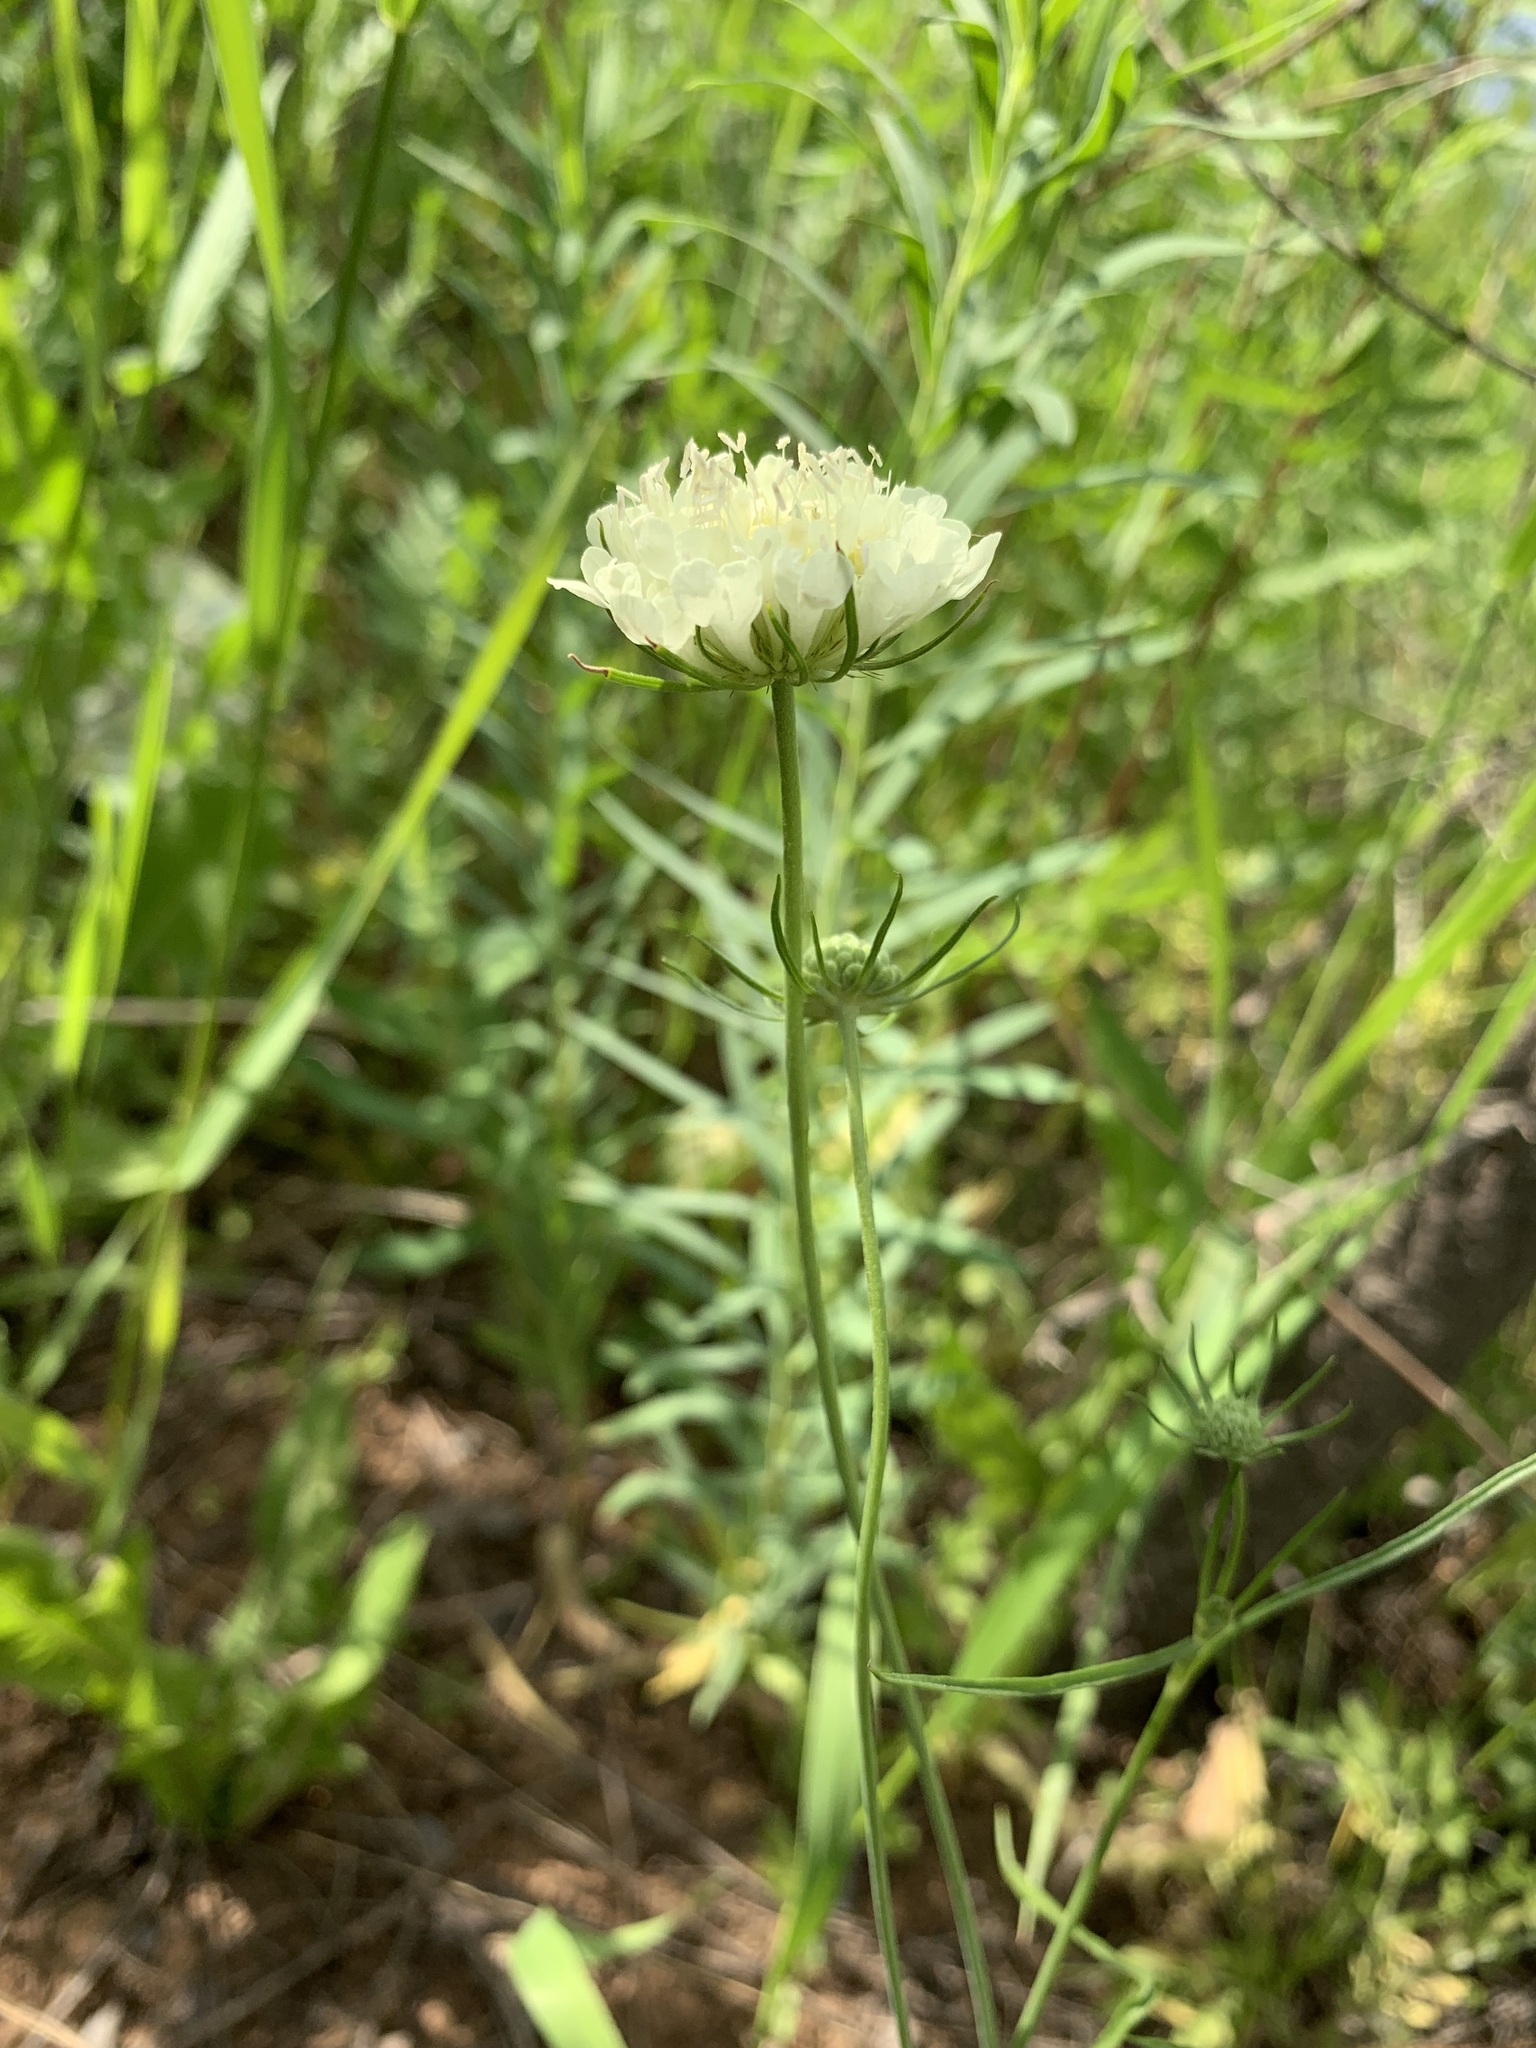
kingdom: Plantae
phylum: Tracheophyta
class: Magnoliopsida
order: Dipsacales
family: Caprifoliaceae
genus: Scabiosa
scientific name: Scabiosa ochroleuca
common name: Cream pincushions
